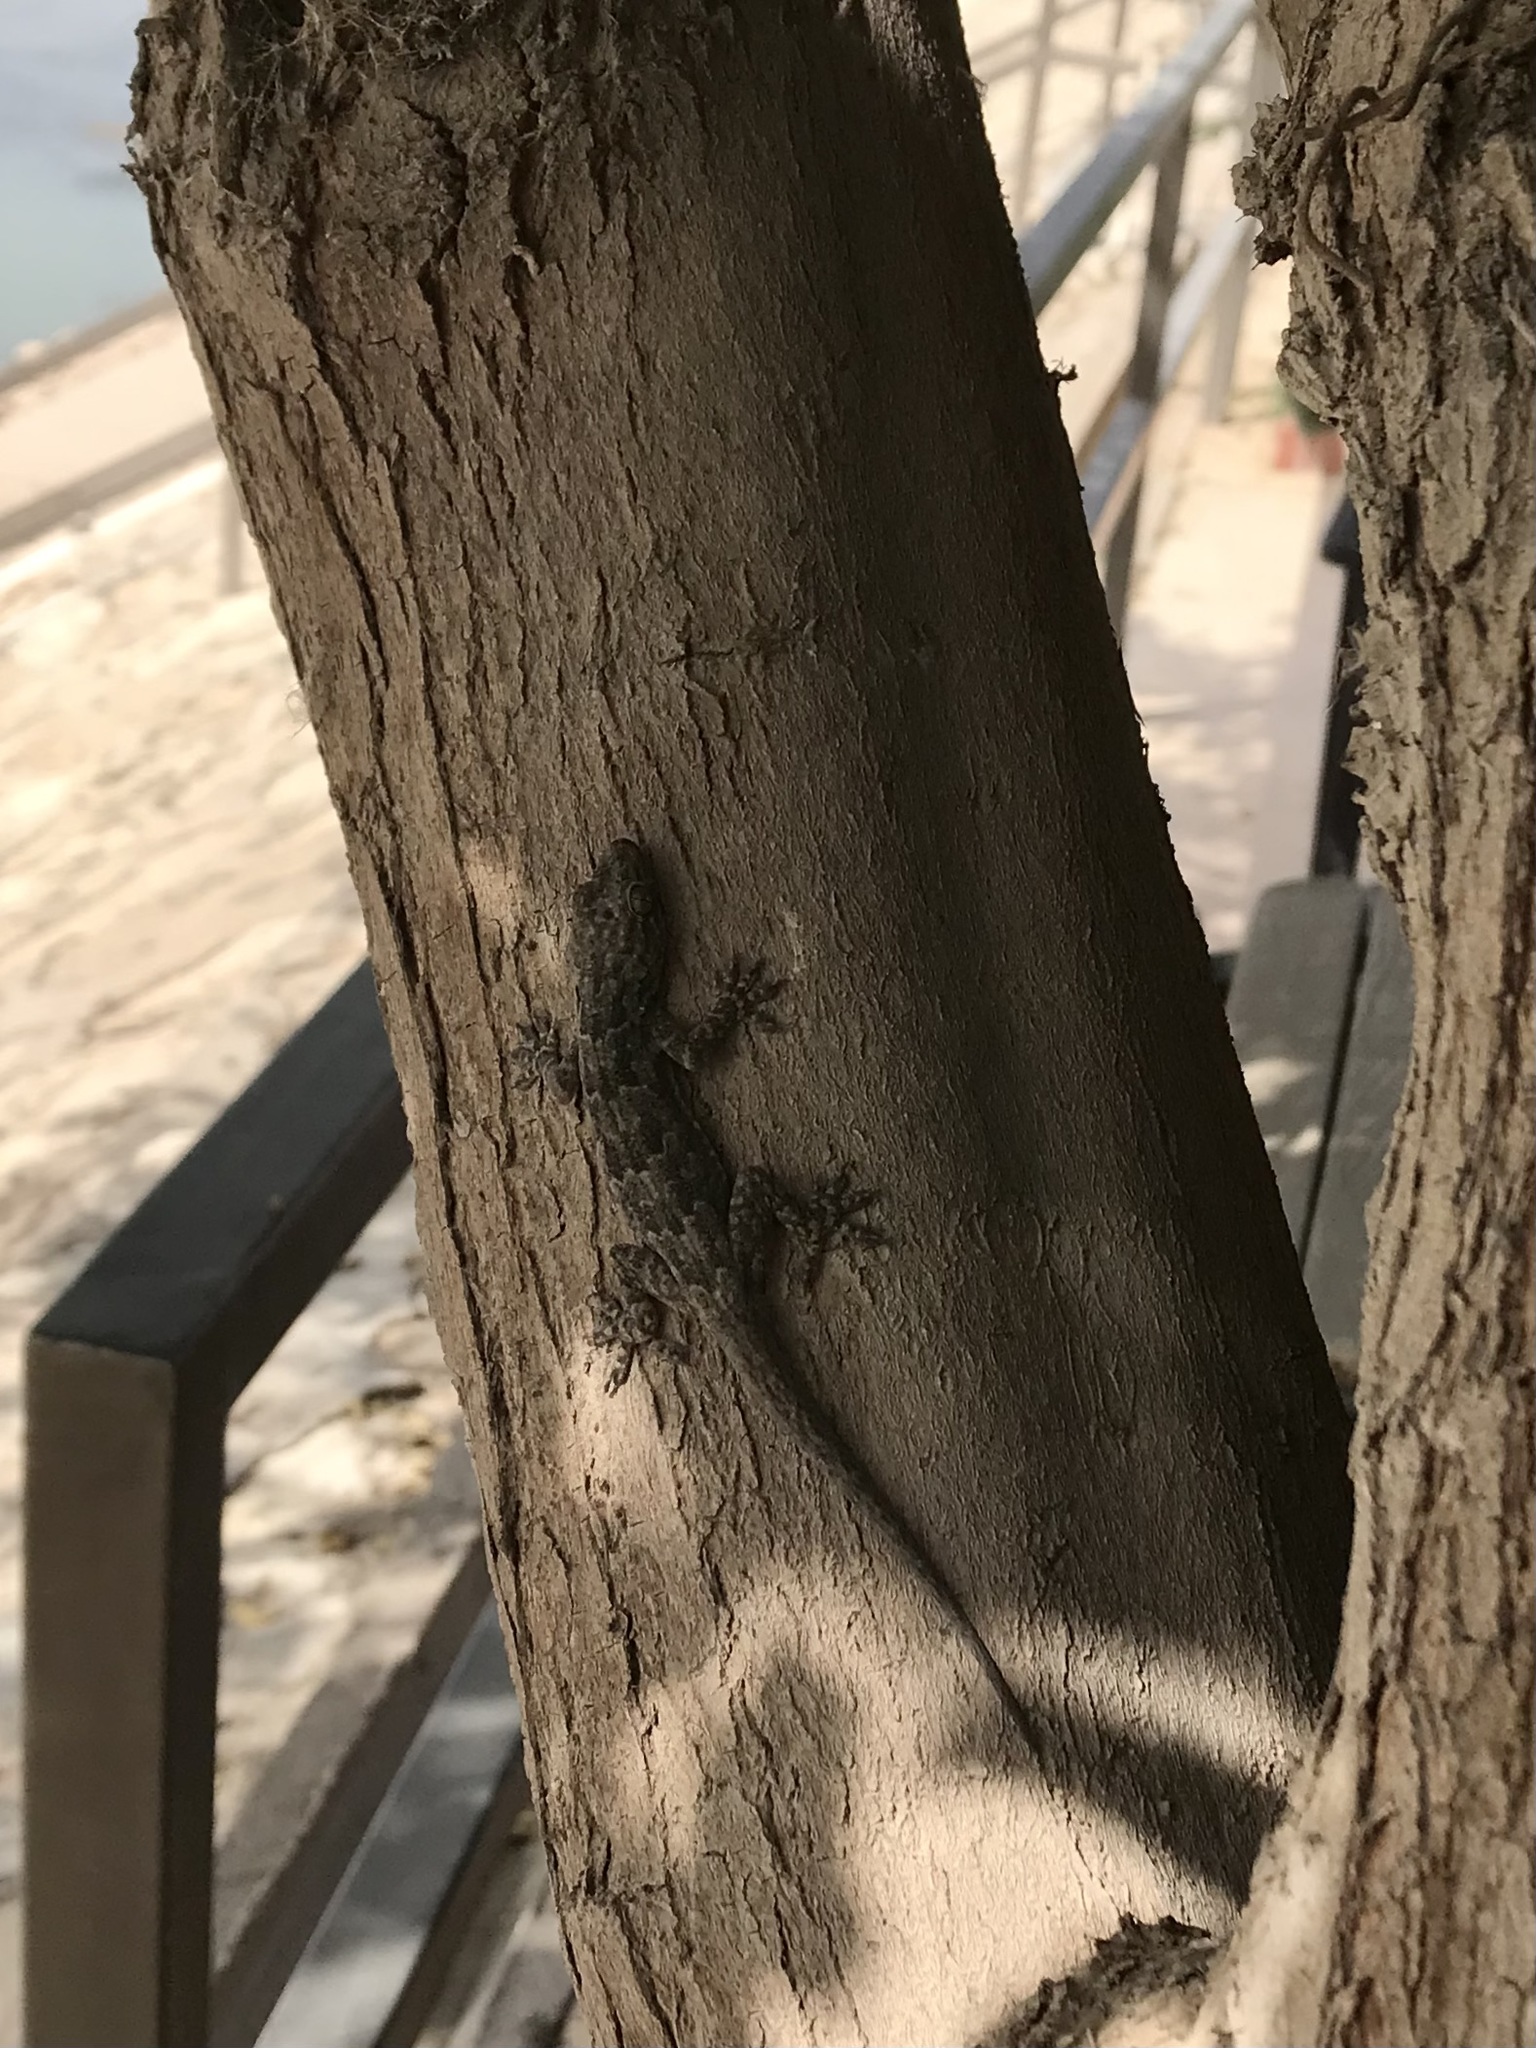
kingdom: Animalia
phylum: Chordata
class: Squamata
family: Gekkonidae
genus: Hemidactylus
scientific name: Hemidactylus flaviviridis
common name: Northern house gecko
